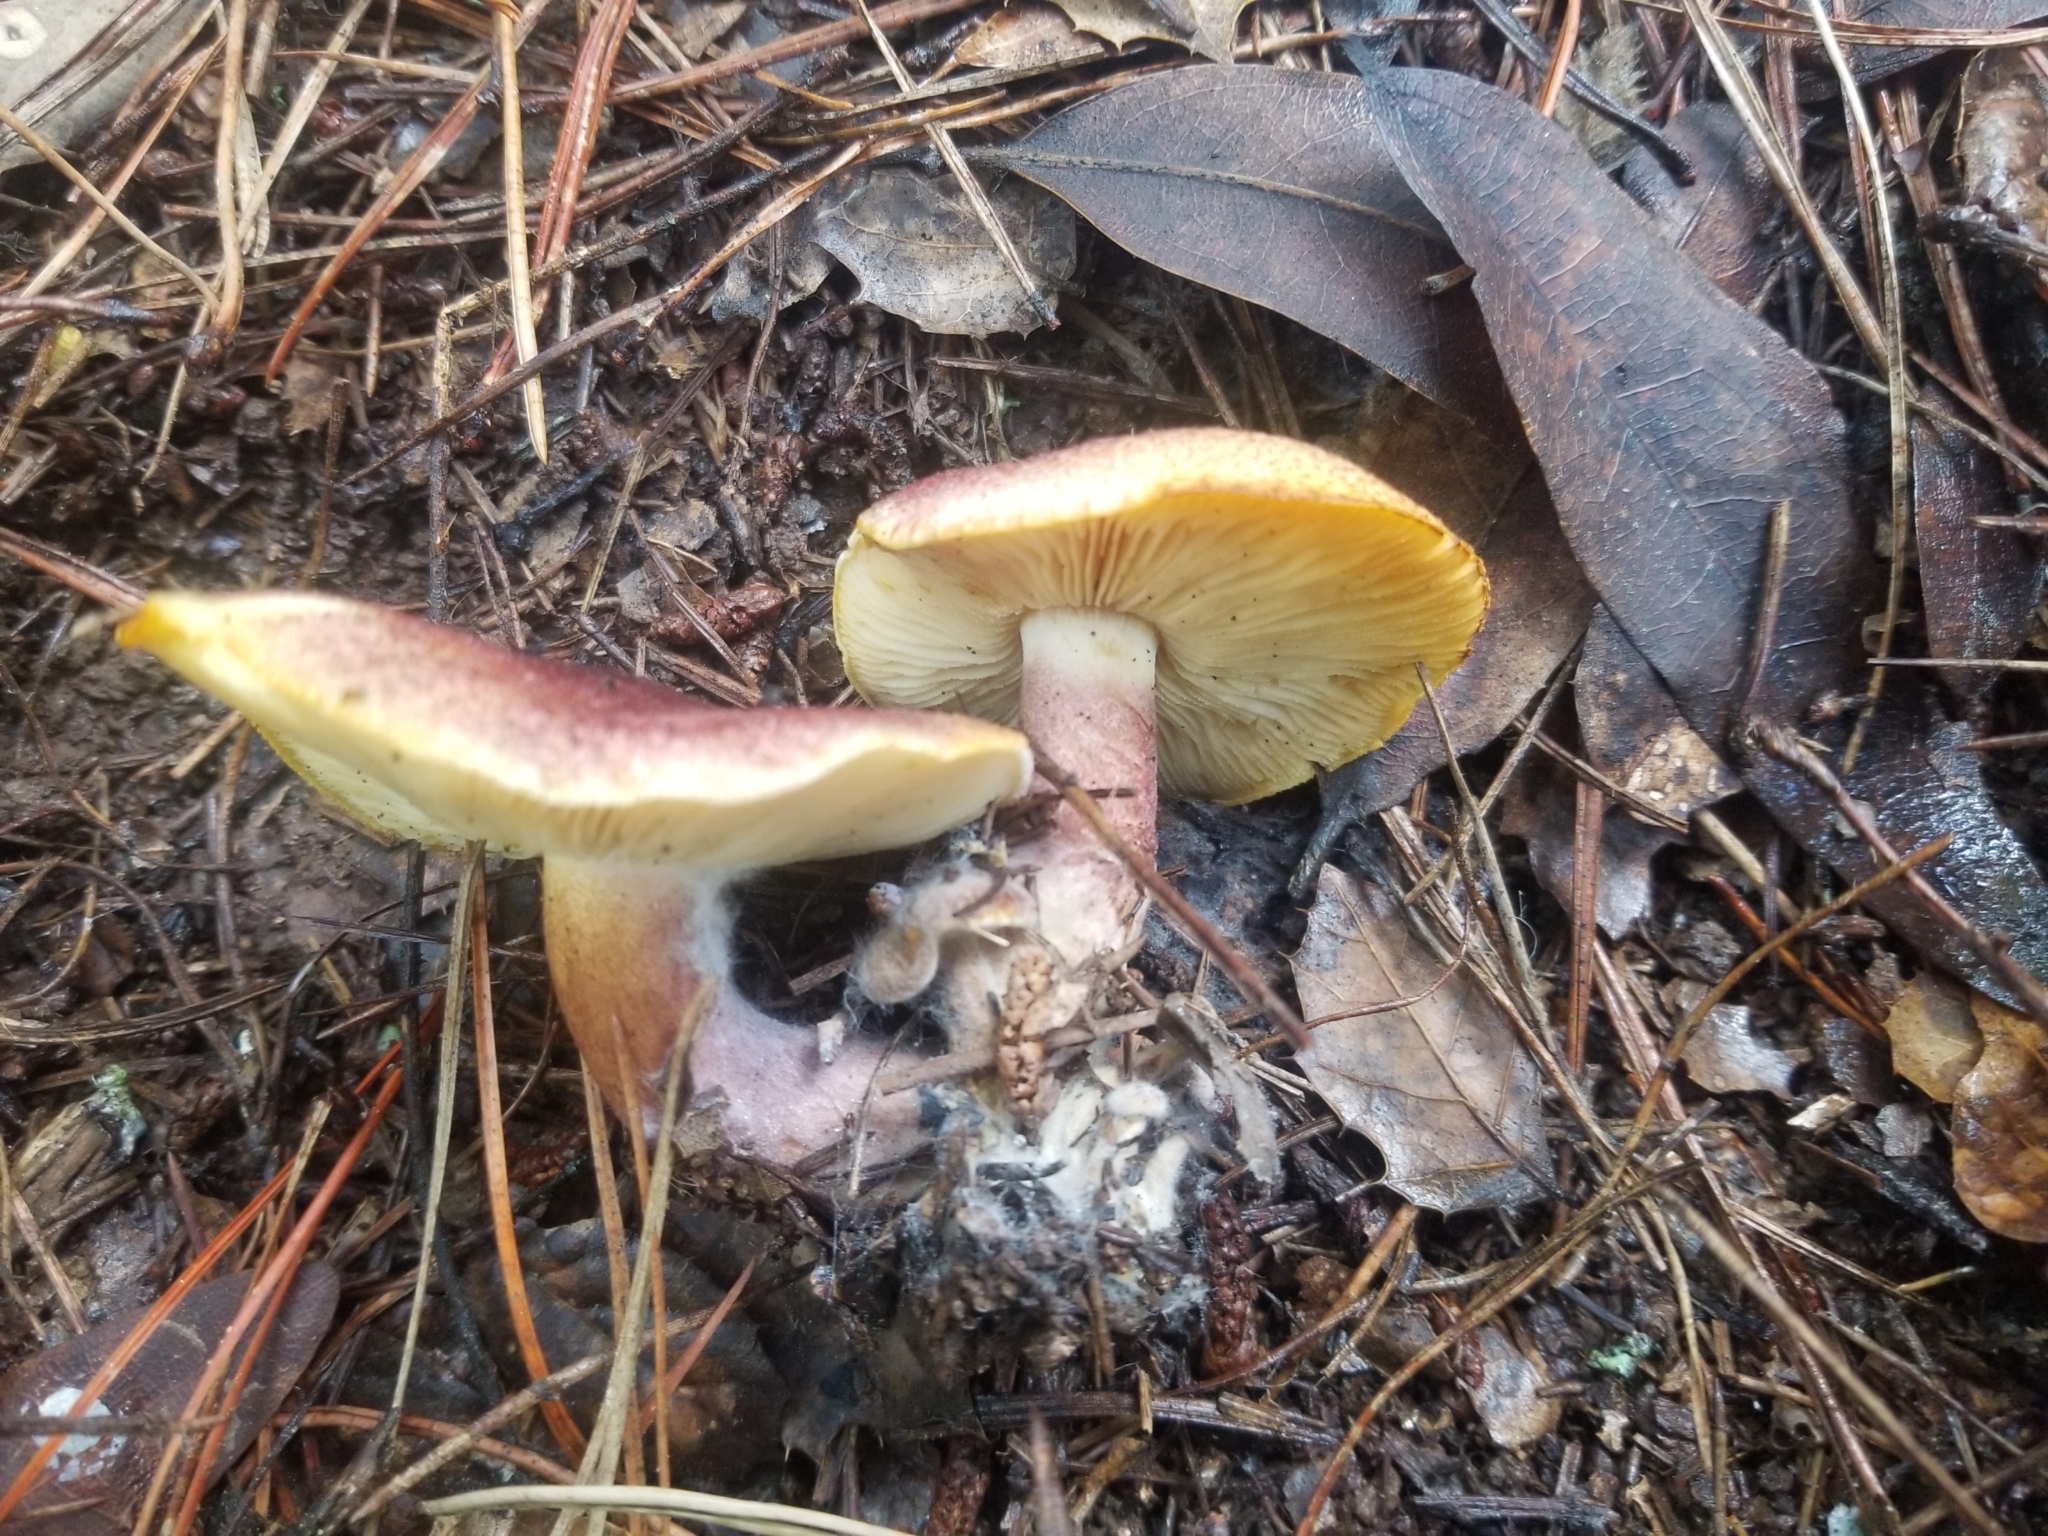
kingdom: Fungi
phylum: Basidiomycota
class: Agaricomycetes
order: Agaricales
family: Tricholomataceae
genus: Tricholomopsis
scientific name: Tricholomopsis rutilans
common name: Plums and custard
